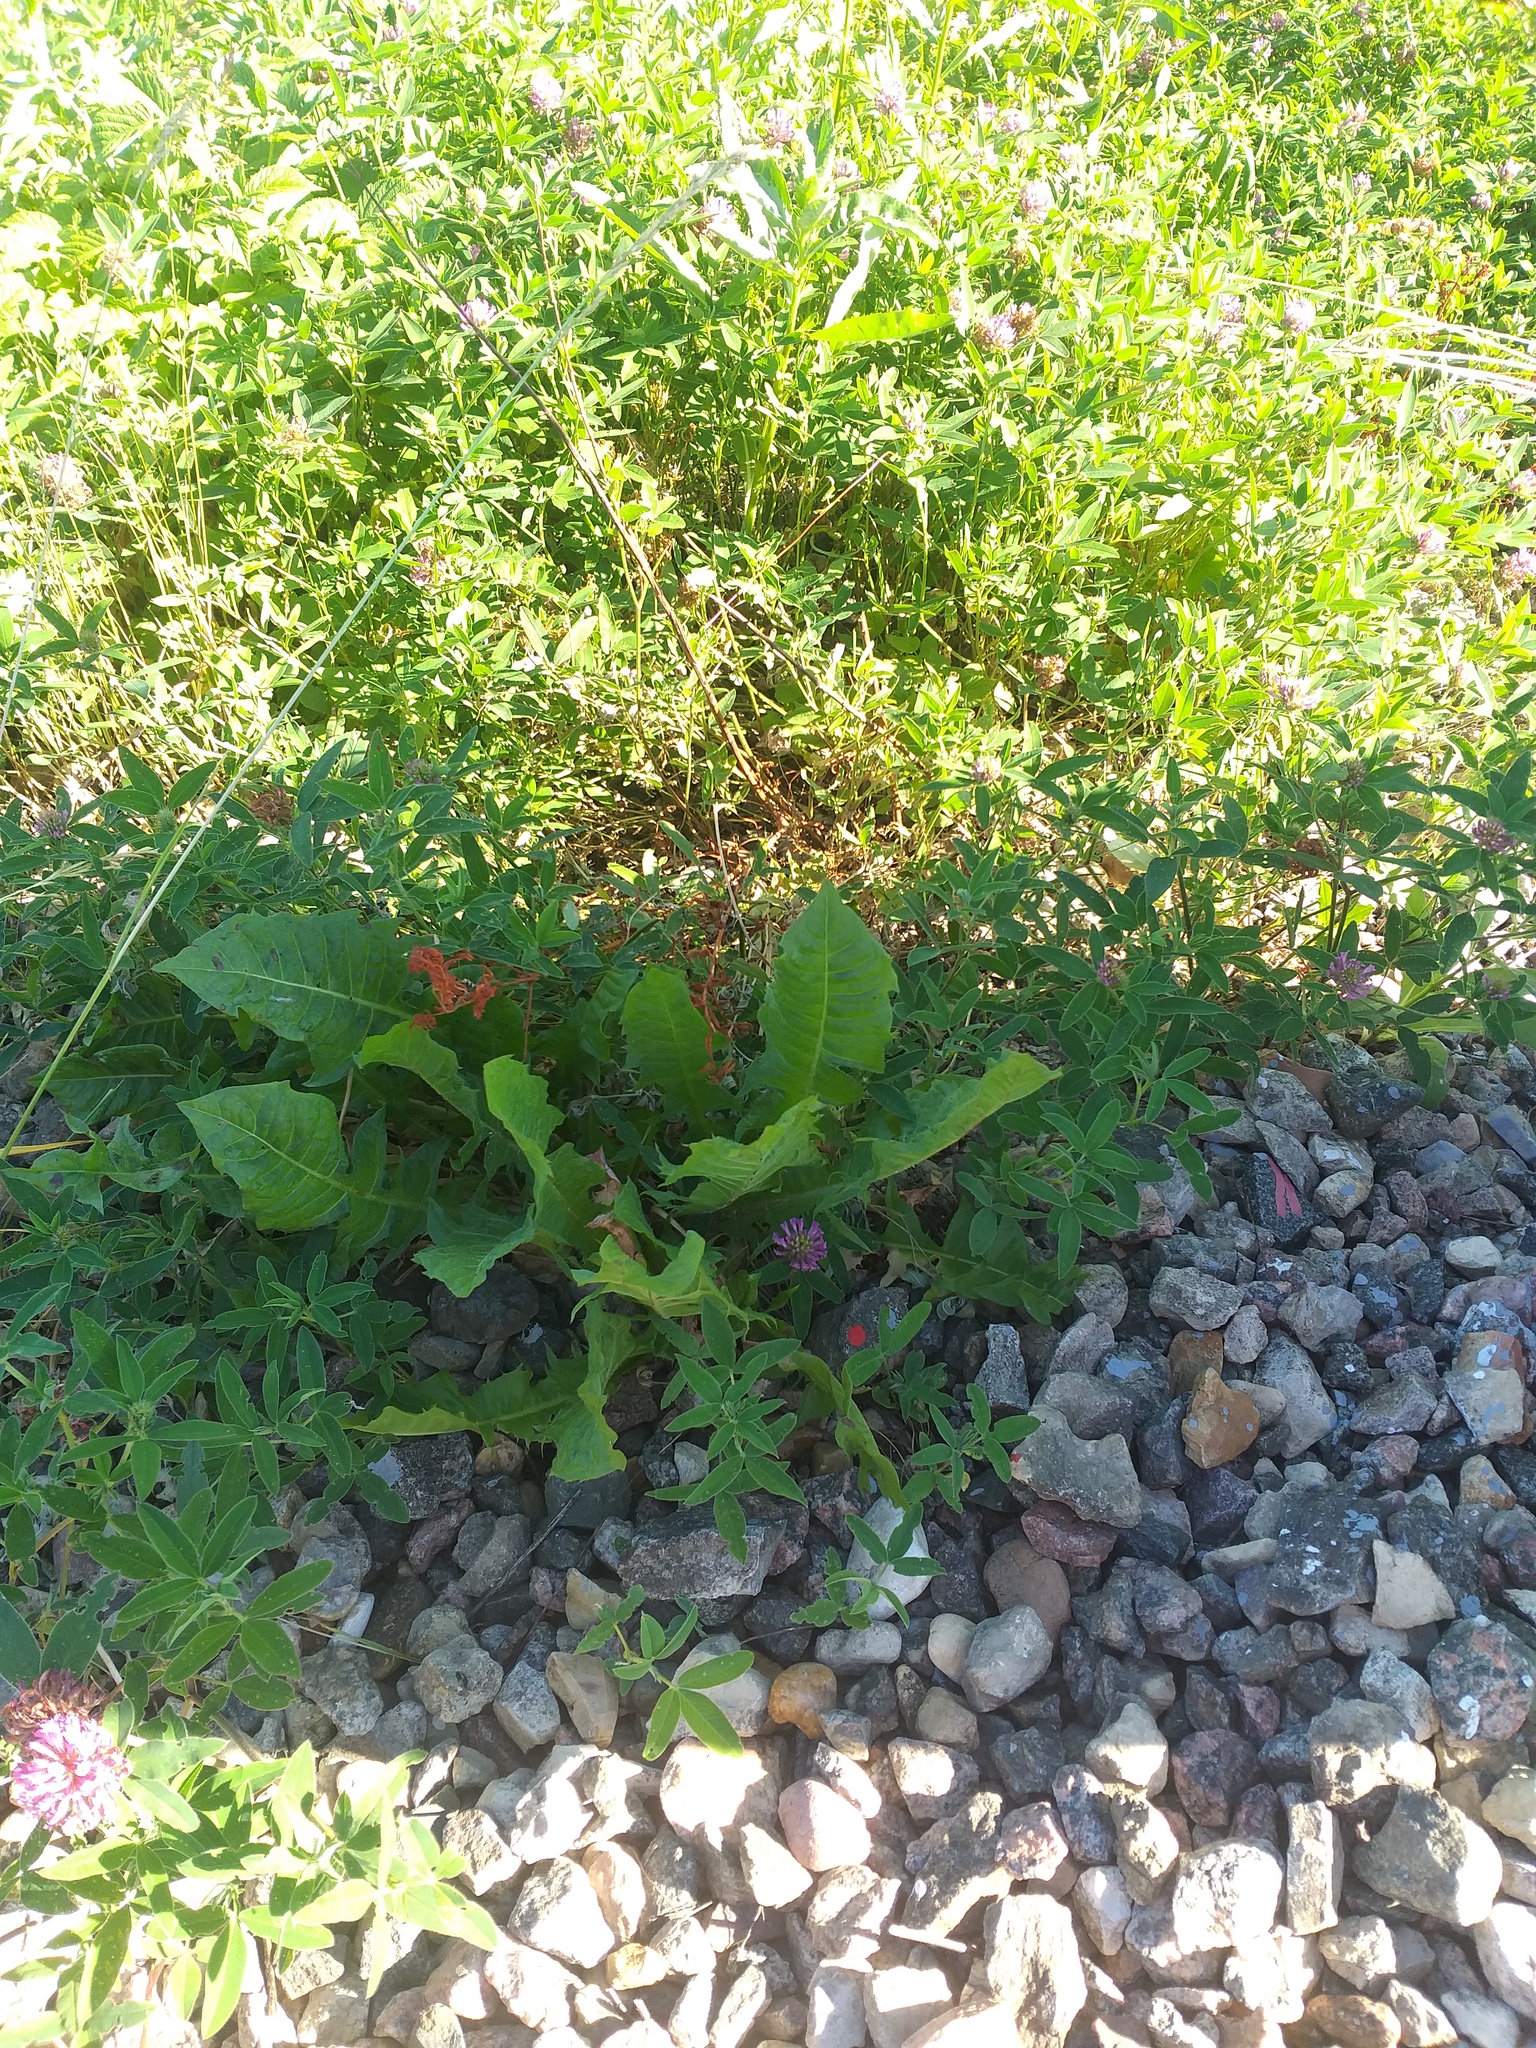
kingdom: Plantae
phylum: Tracheophyta
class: Magnoliopsida
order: Asterales
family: Asteraceae
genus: Taraxacum
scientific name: Taraxacum officinale
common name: Common dandelion
